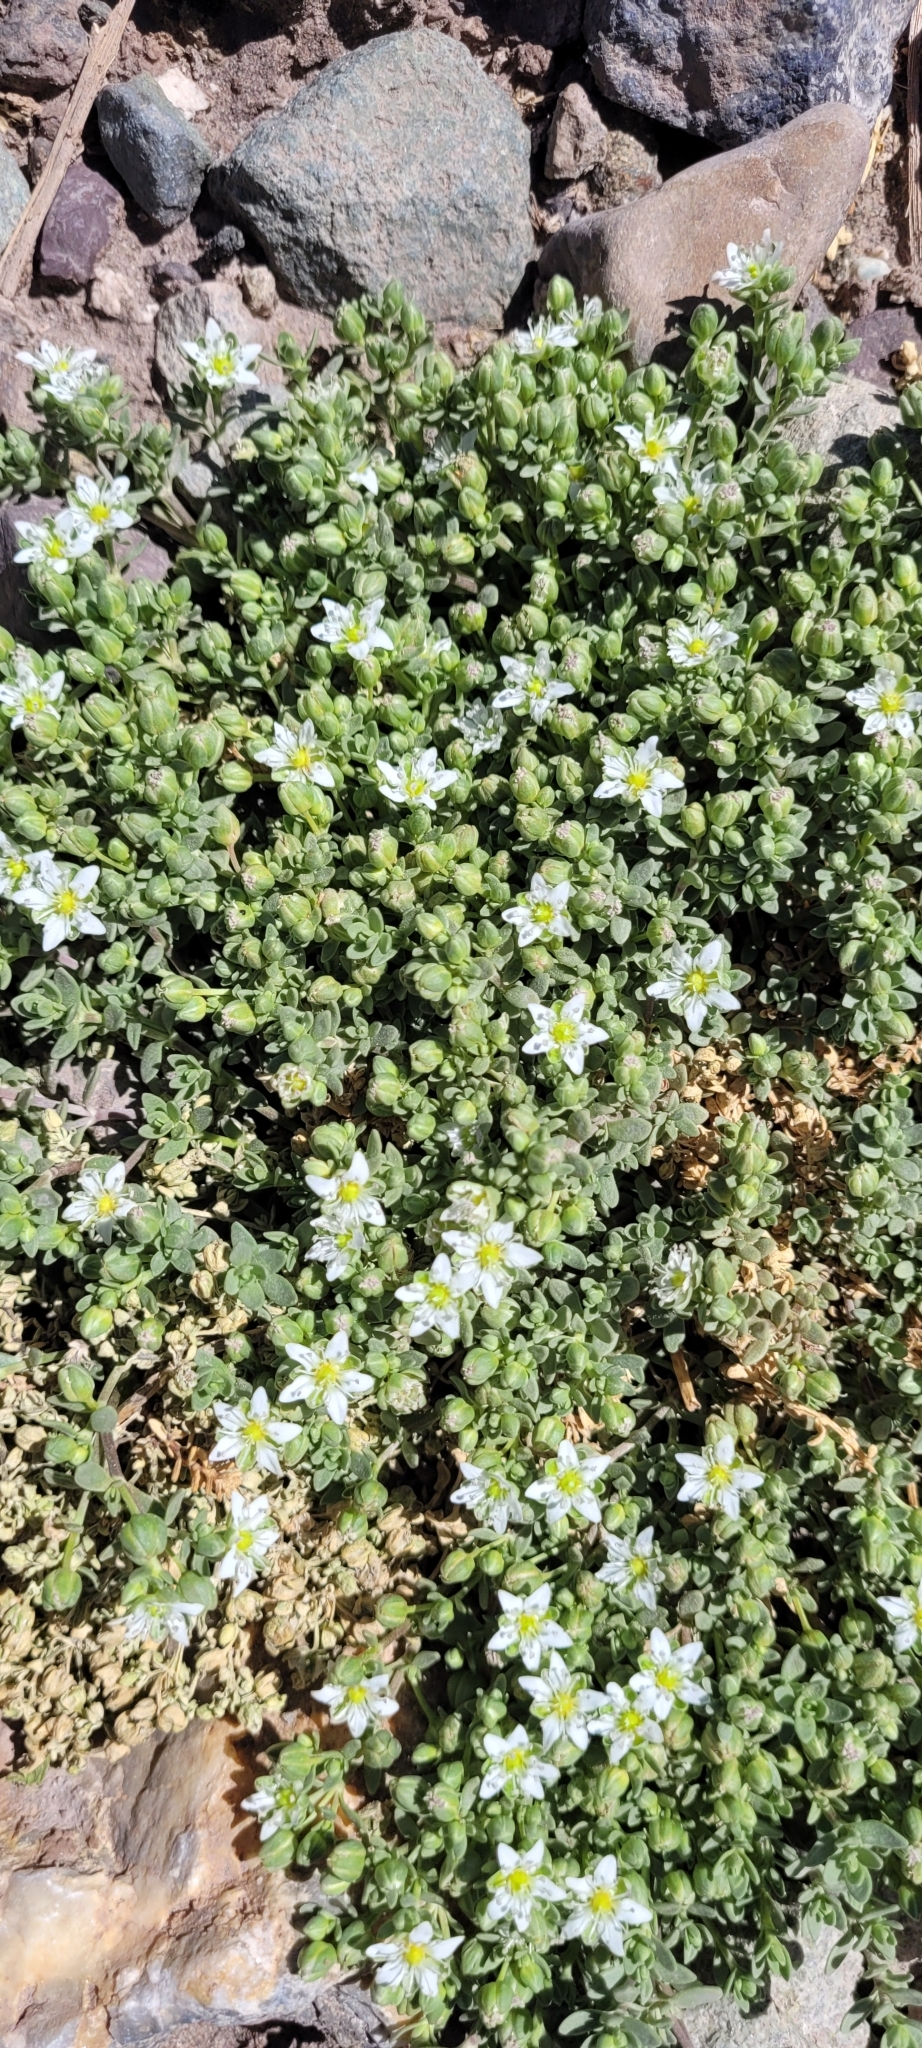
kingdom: Plantae
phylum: Tracheophyta
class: Magnoliopsida
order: Caryophyllales
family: Caryophyllaceae
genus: Arenaria
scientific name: Arenaria serpens
